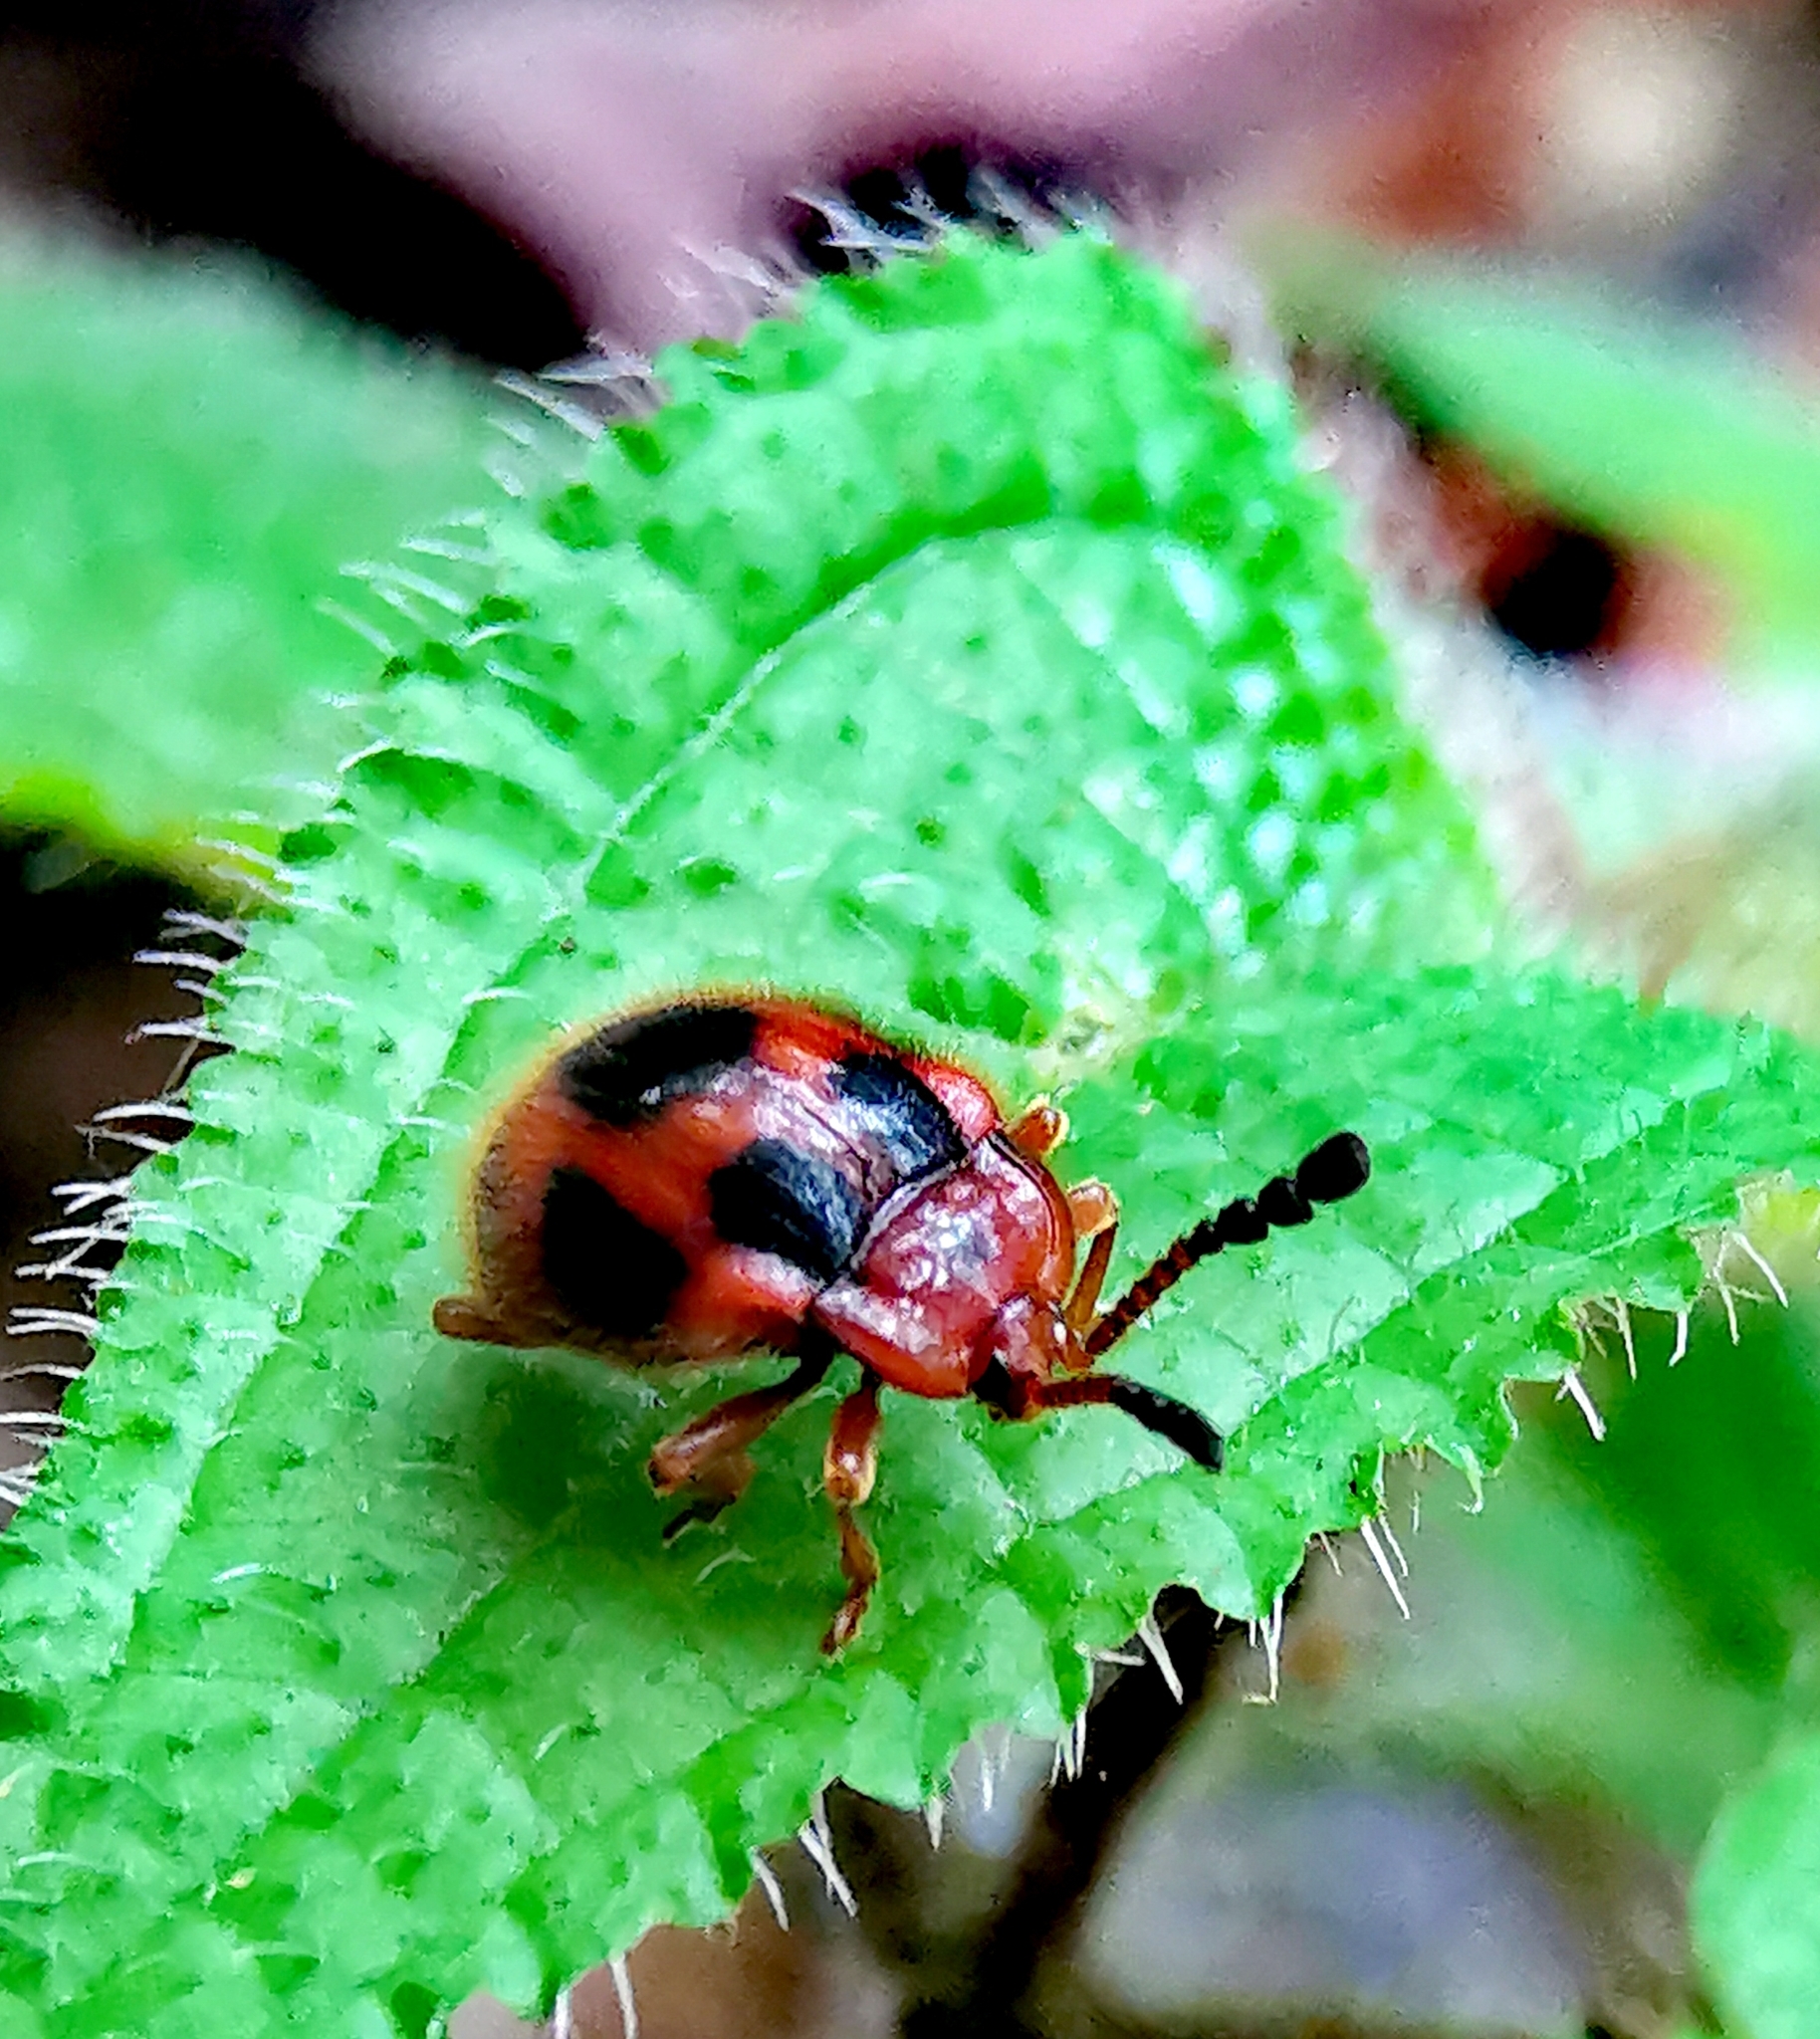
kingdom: Animalia
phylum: Arthropoda
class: Insecta
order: Coleoptera
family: Endomychidae
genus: Stenotarsus
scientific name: Stenotarsus
